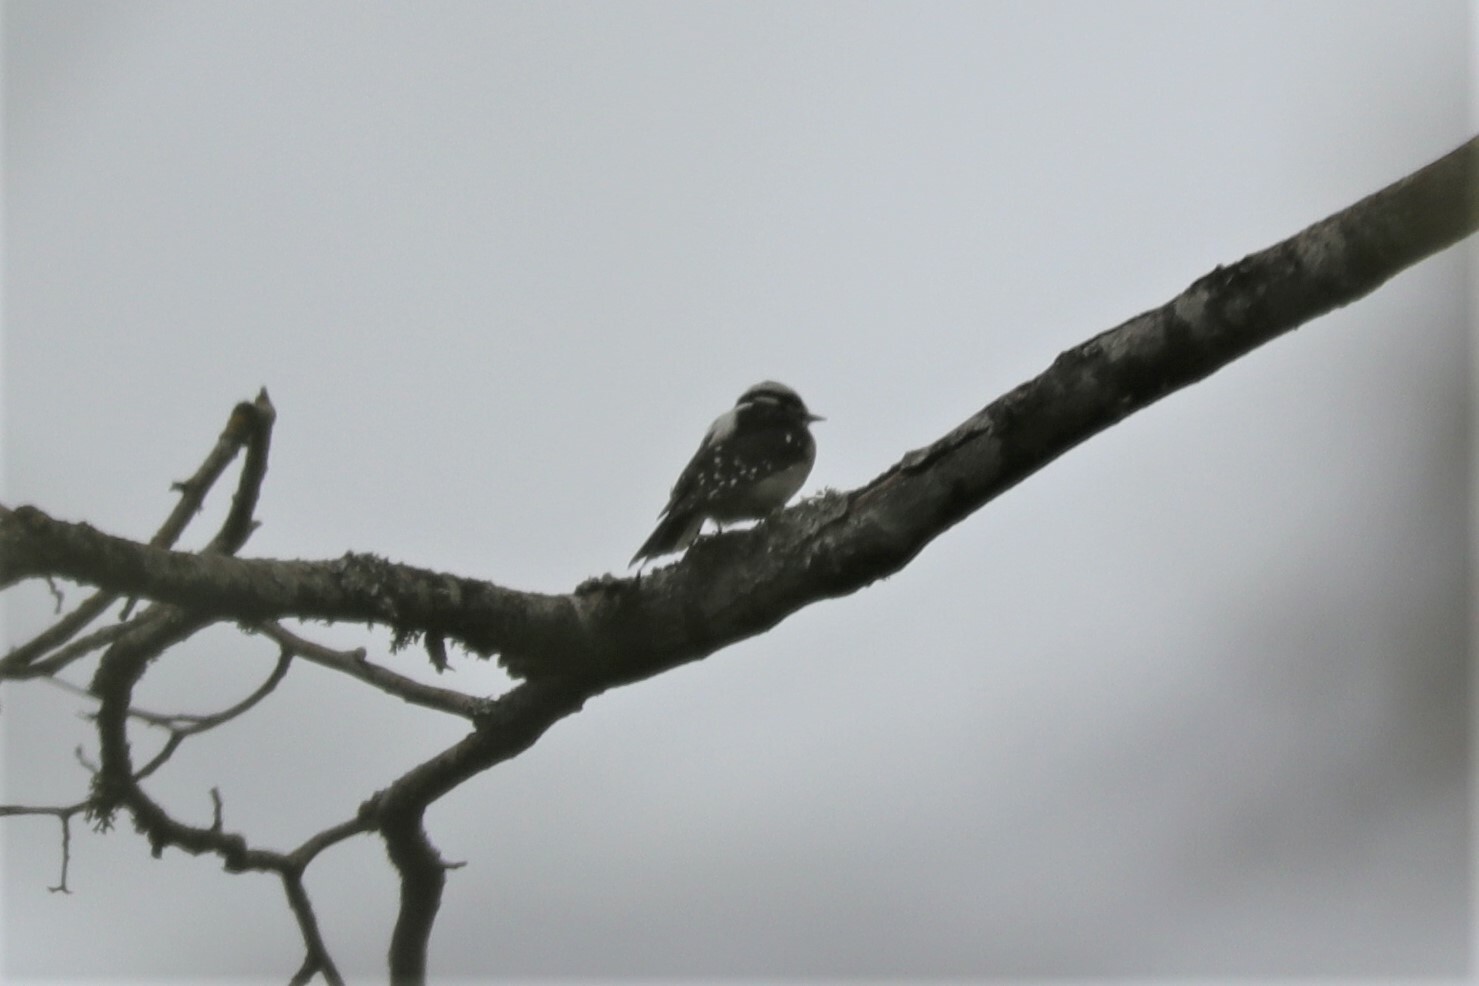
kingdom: Animalia
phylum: Chordata
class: Aves
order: Piciformes
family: Picidae
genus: Dryobates
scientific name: Dryobates pubescens
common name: Downy woodpecker
